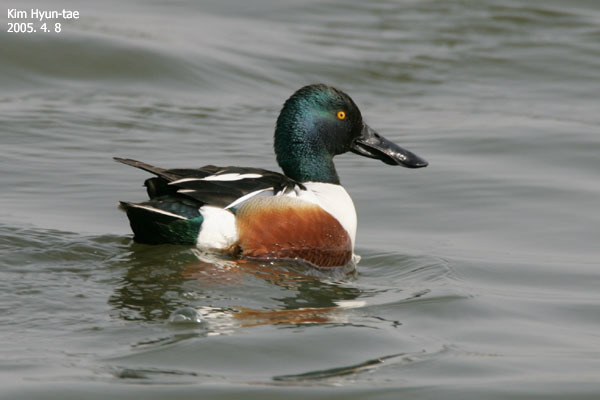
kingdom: Animalia
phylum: Chordata
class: Aves
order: Anseriformes
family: Anatidae
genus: Spatula
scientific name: Spatula clypeata
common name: Northern shoveler
